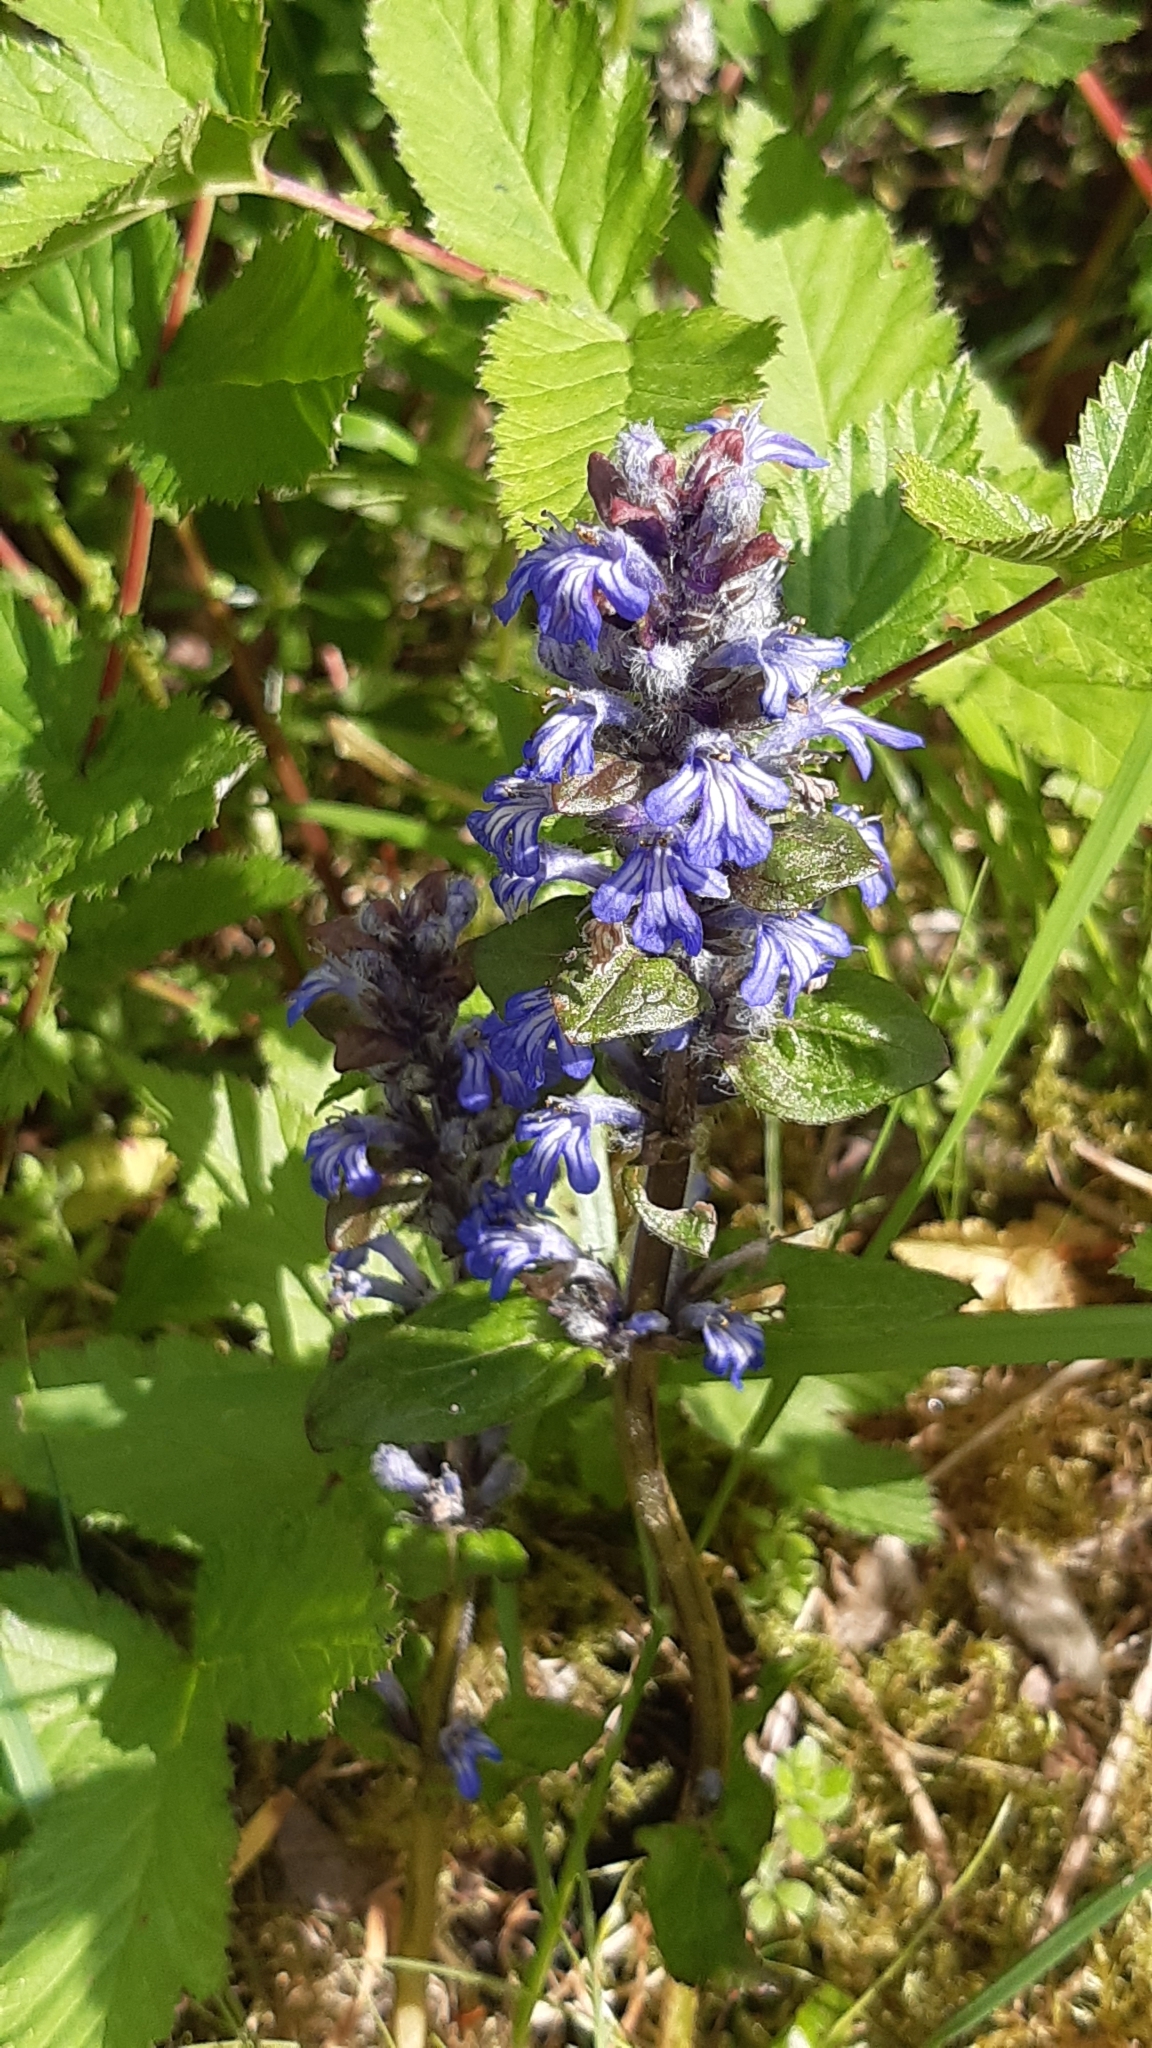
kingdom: Plantae
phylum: Tracheophyta
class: Magnoliopsida
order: Lamiales
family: Lamiaceae
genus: Ajuga
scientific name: Ajuga reptans
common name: Bugle
